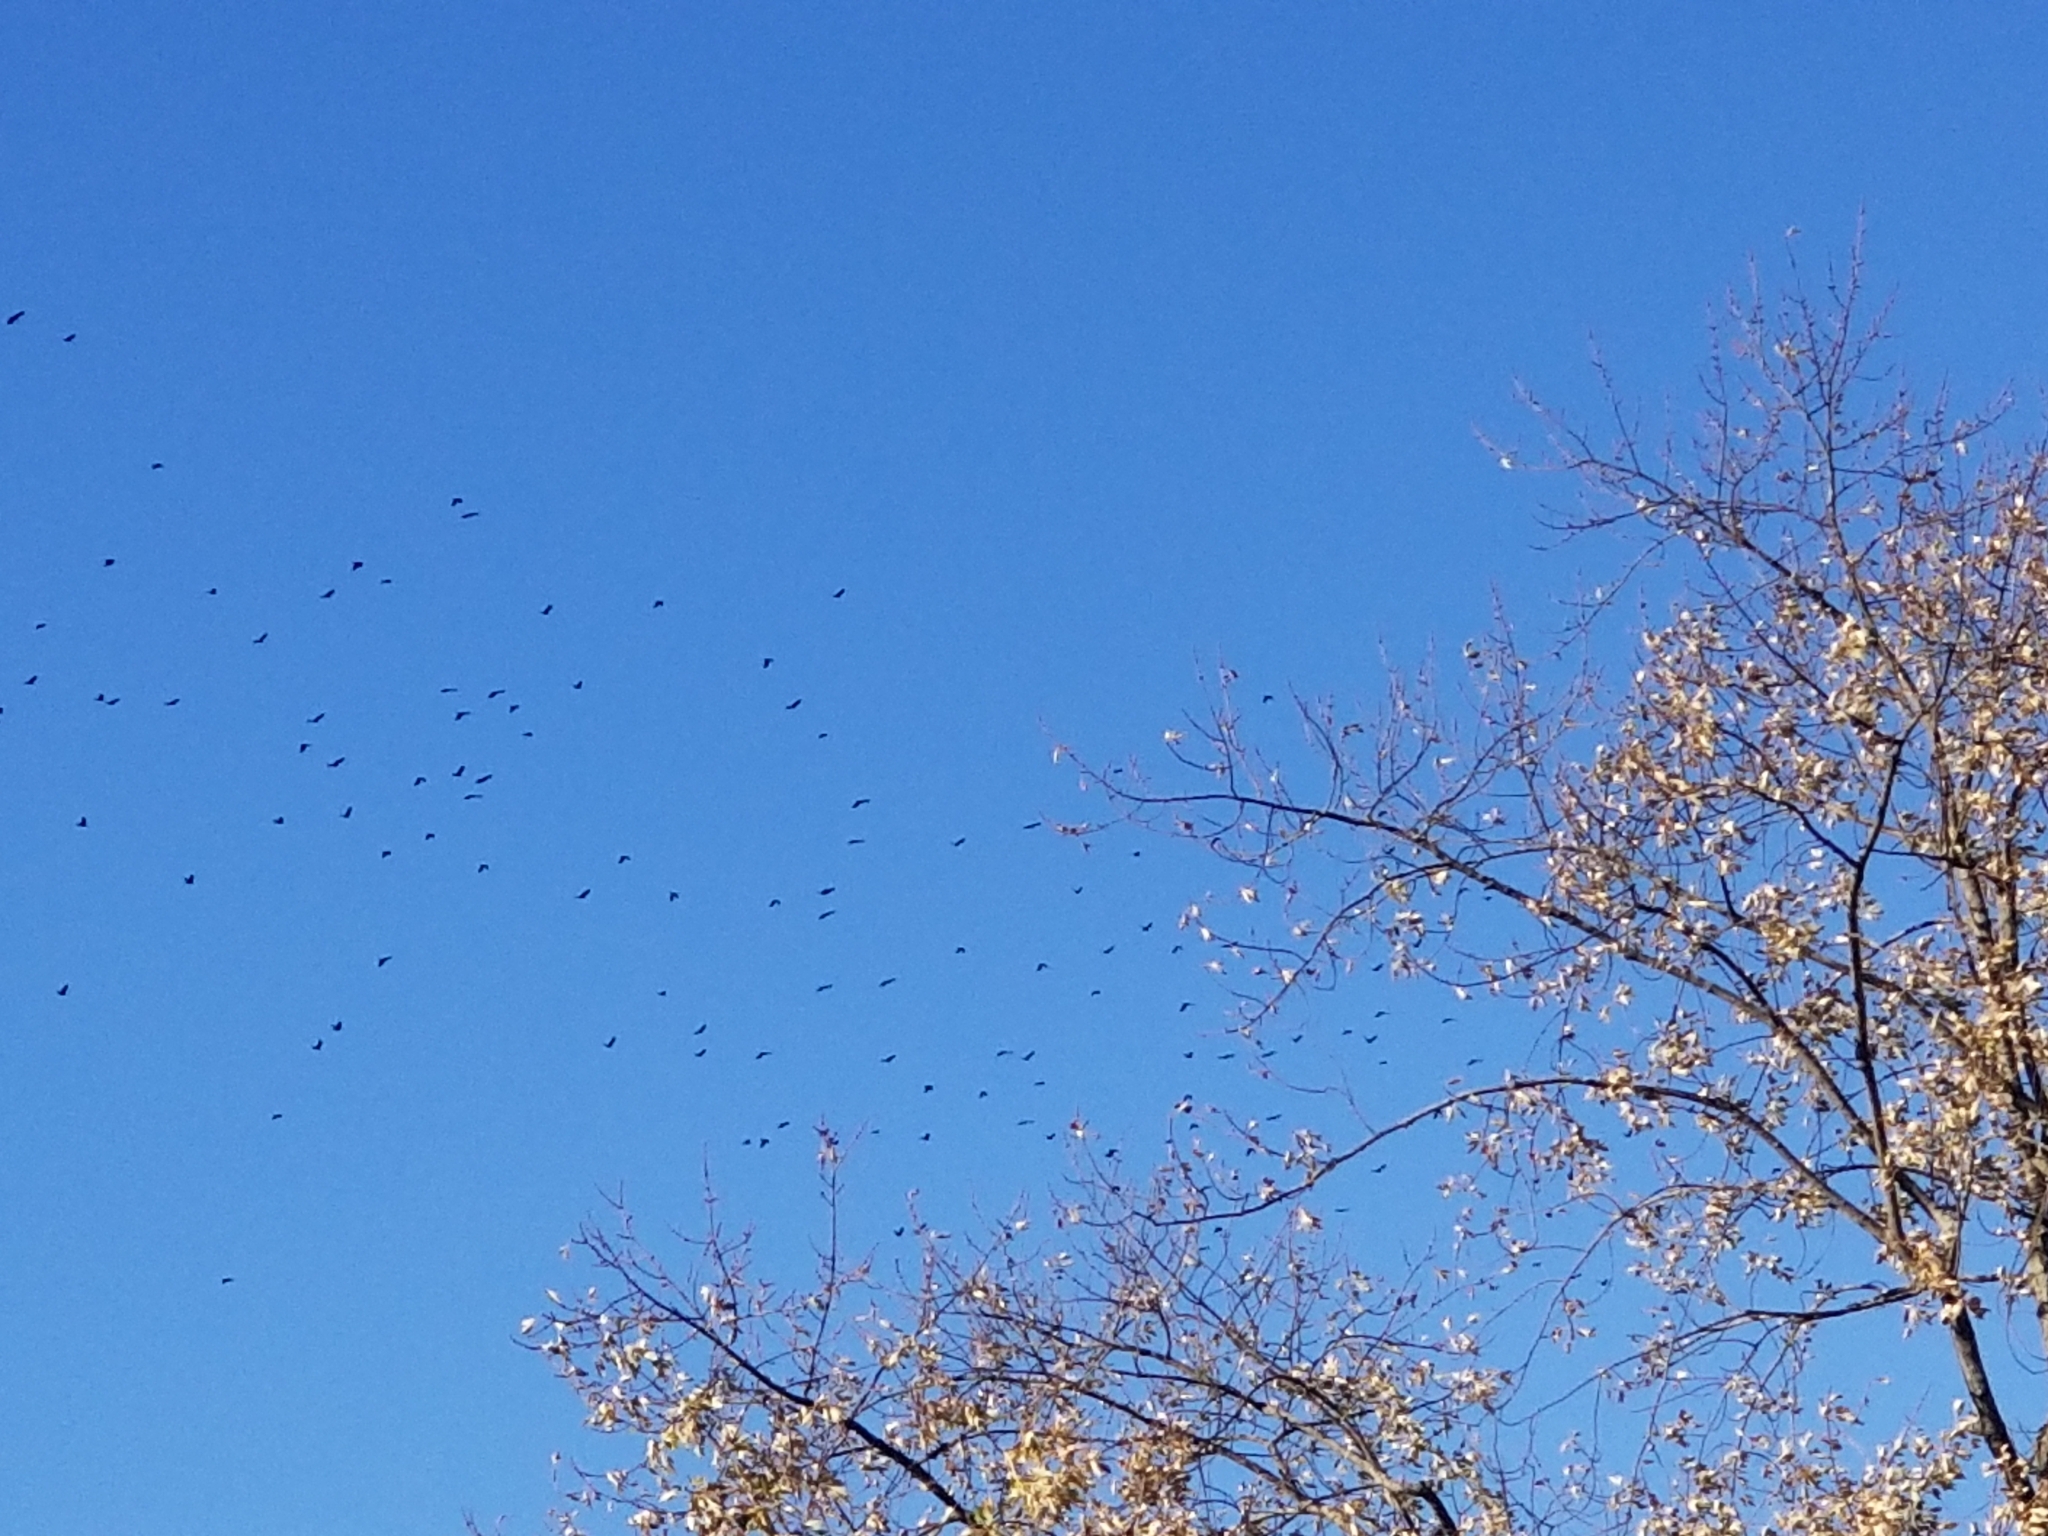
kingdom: Animalia
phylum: Chordata
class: Aves
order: Passeriformes
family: Corvidae
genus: Corvus
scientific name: Corvus brachyrhynchos
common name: American crow
